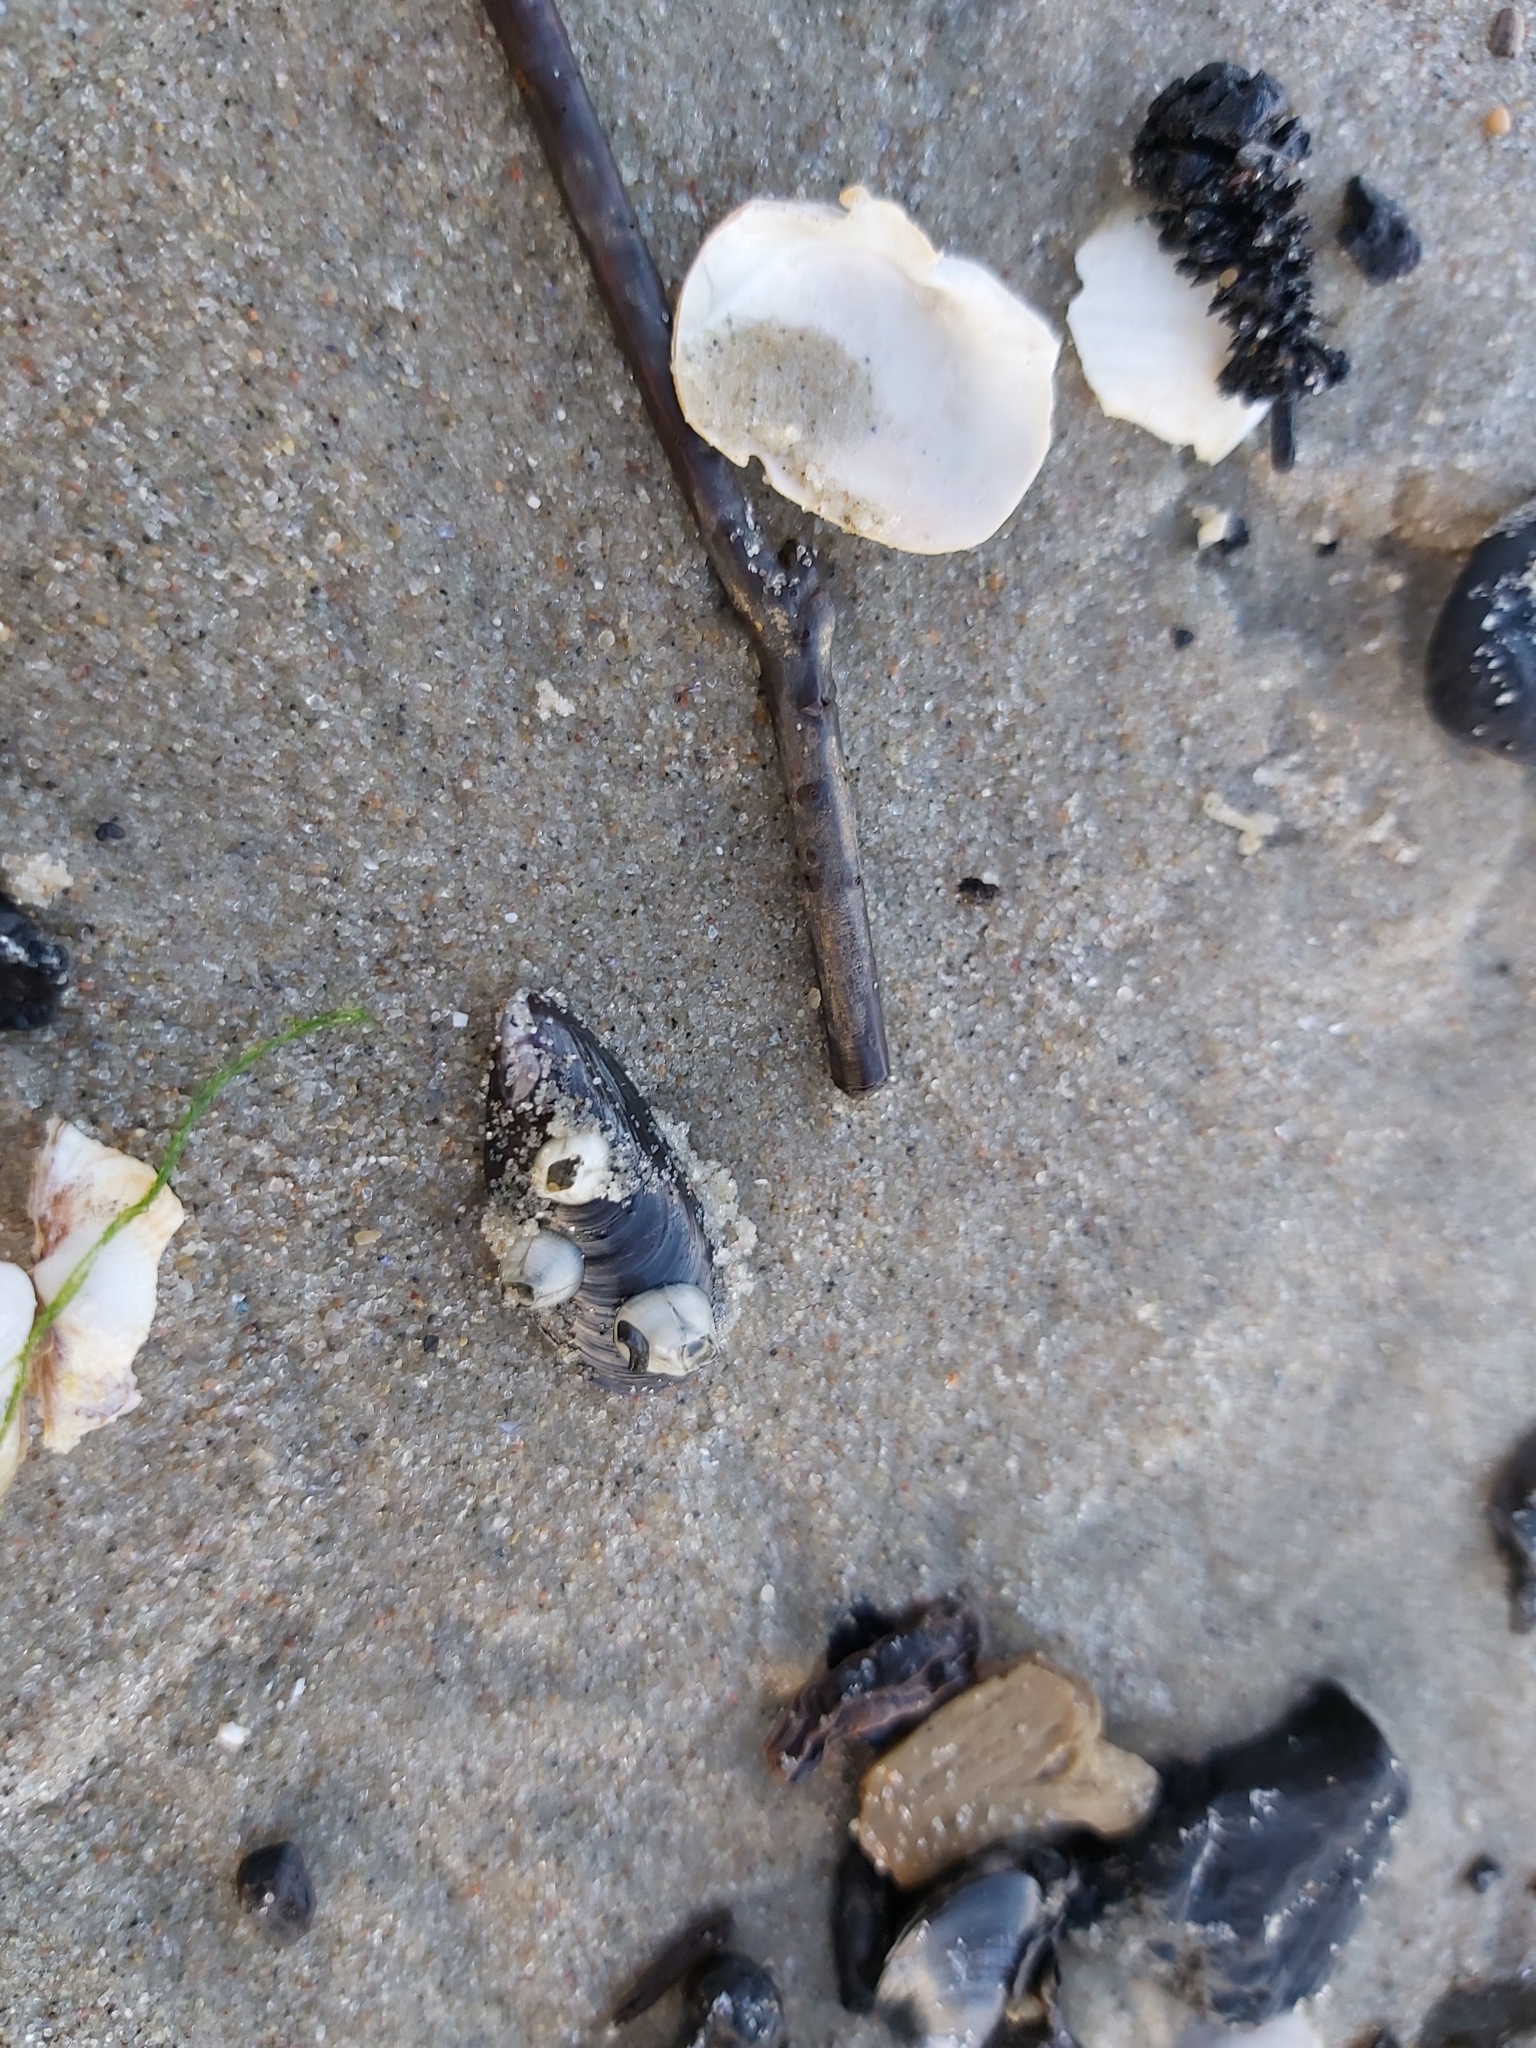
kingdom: Animalia
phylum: Arthropoda
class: Maxillopoda
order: Sessilia
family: Balanidae
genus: Amphibalanus
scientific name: Amphibalanus improvisus
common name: Bay barnacle
